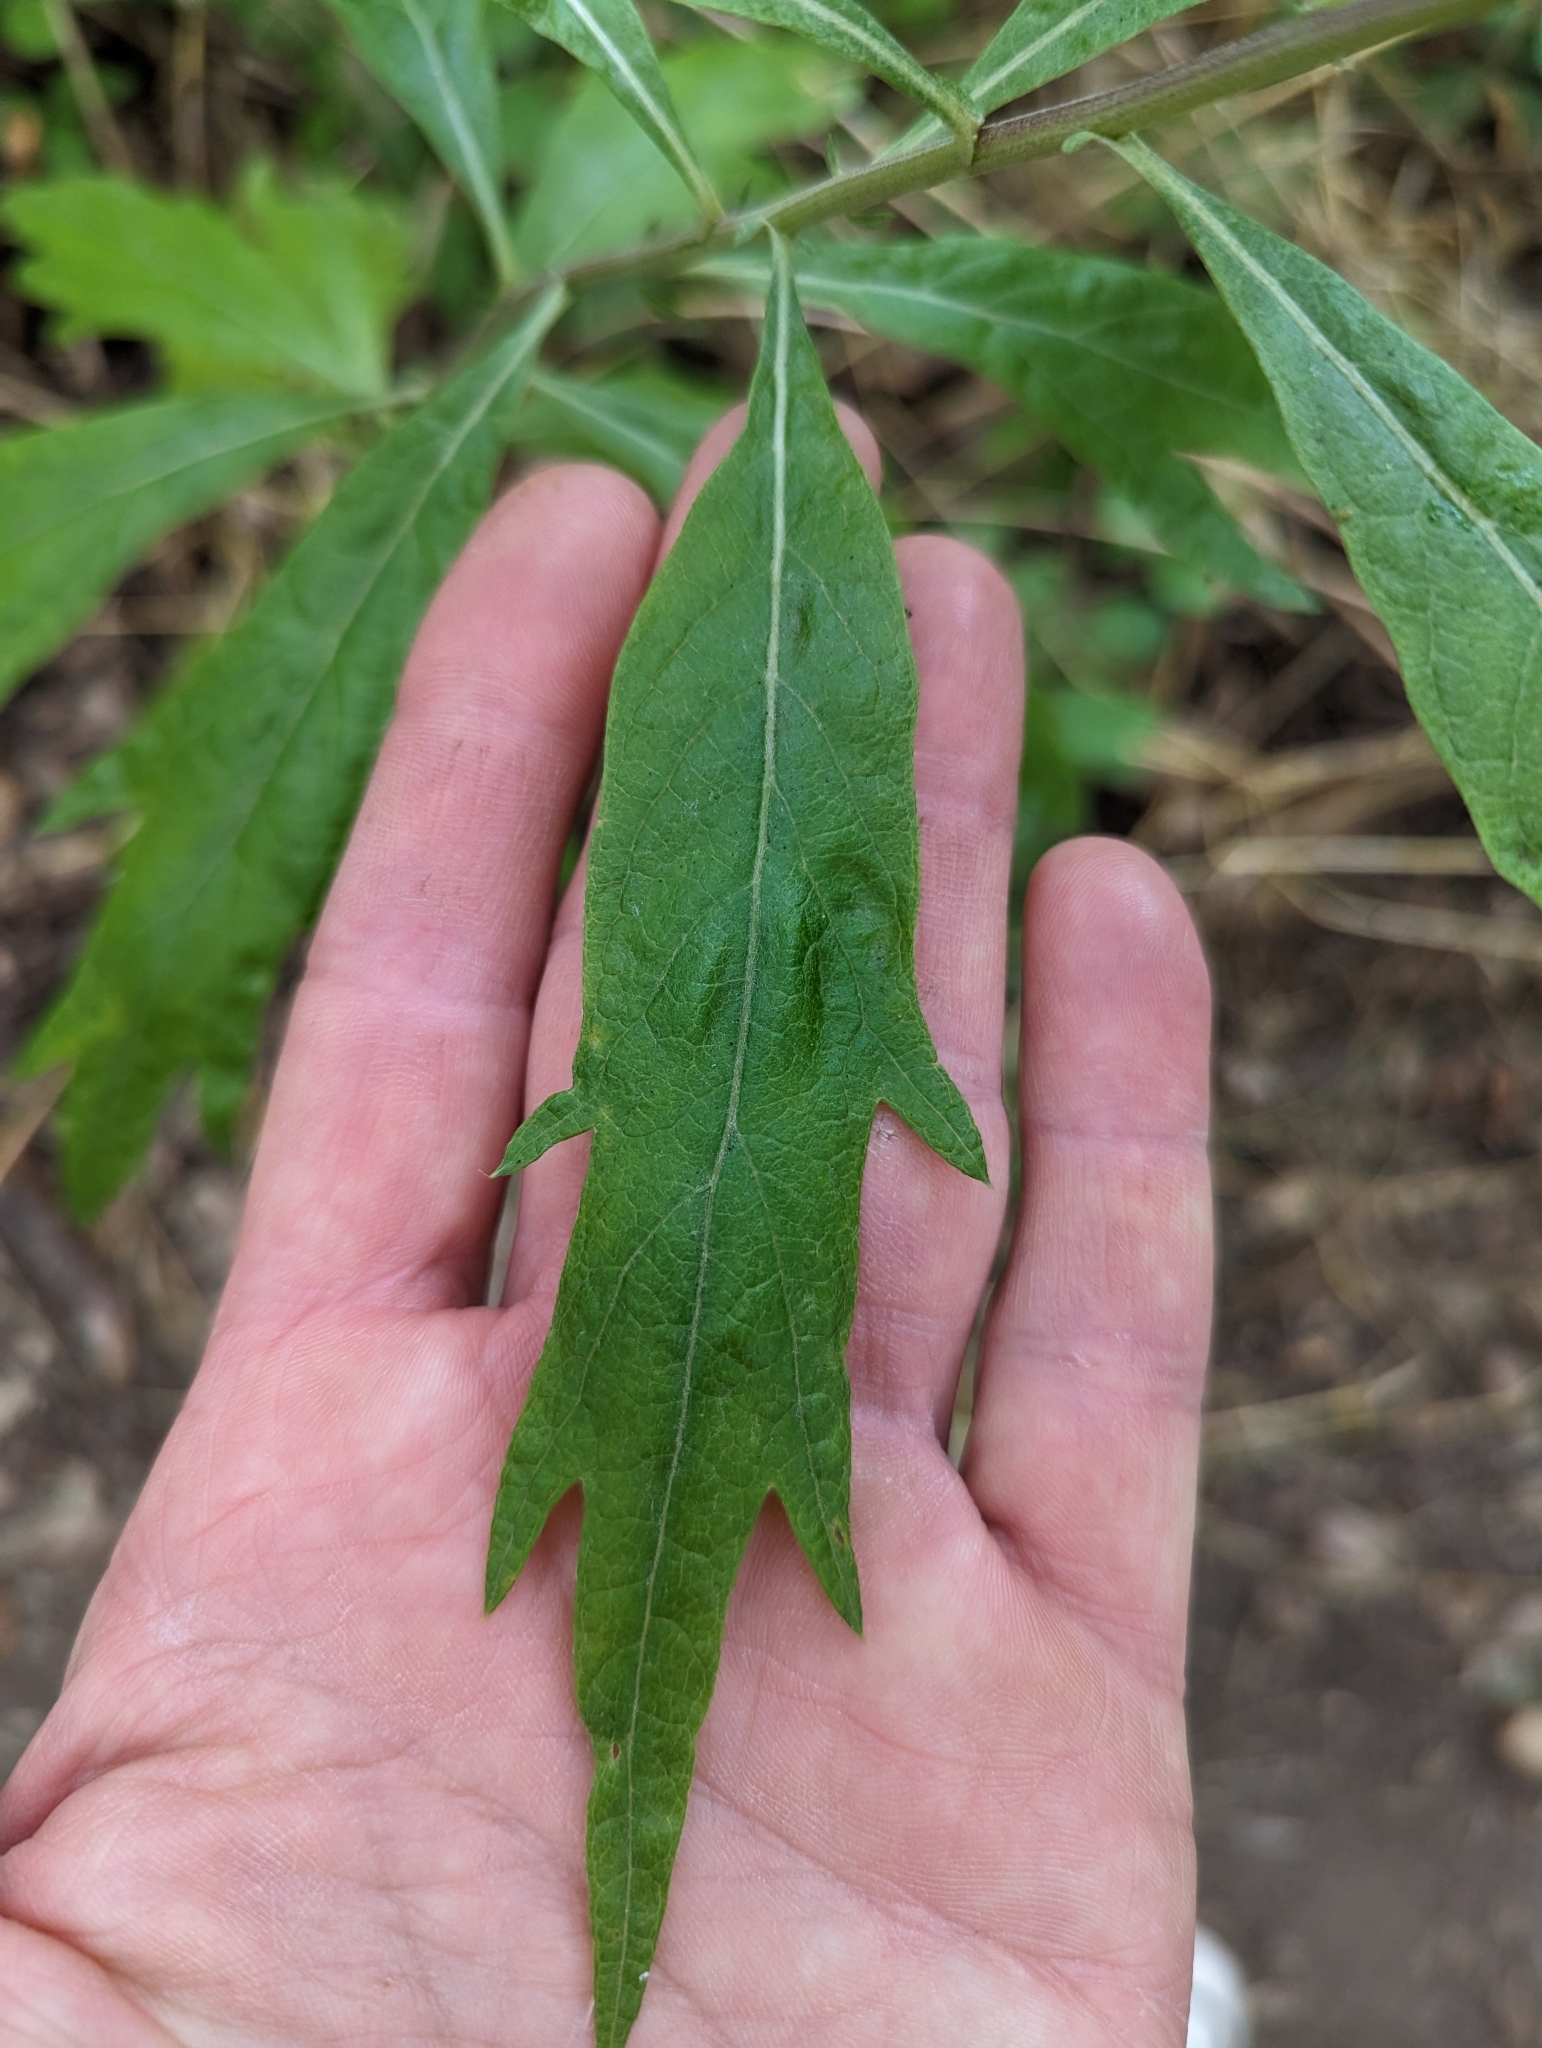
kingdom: Plantae
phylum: Tracheophyta
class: Magnoliopsida
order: Asterales
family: Asteraceae
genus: Artemisia
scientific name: Artemisia douglasiana
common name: Northwest mugwort
